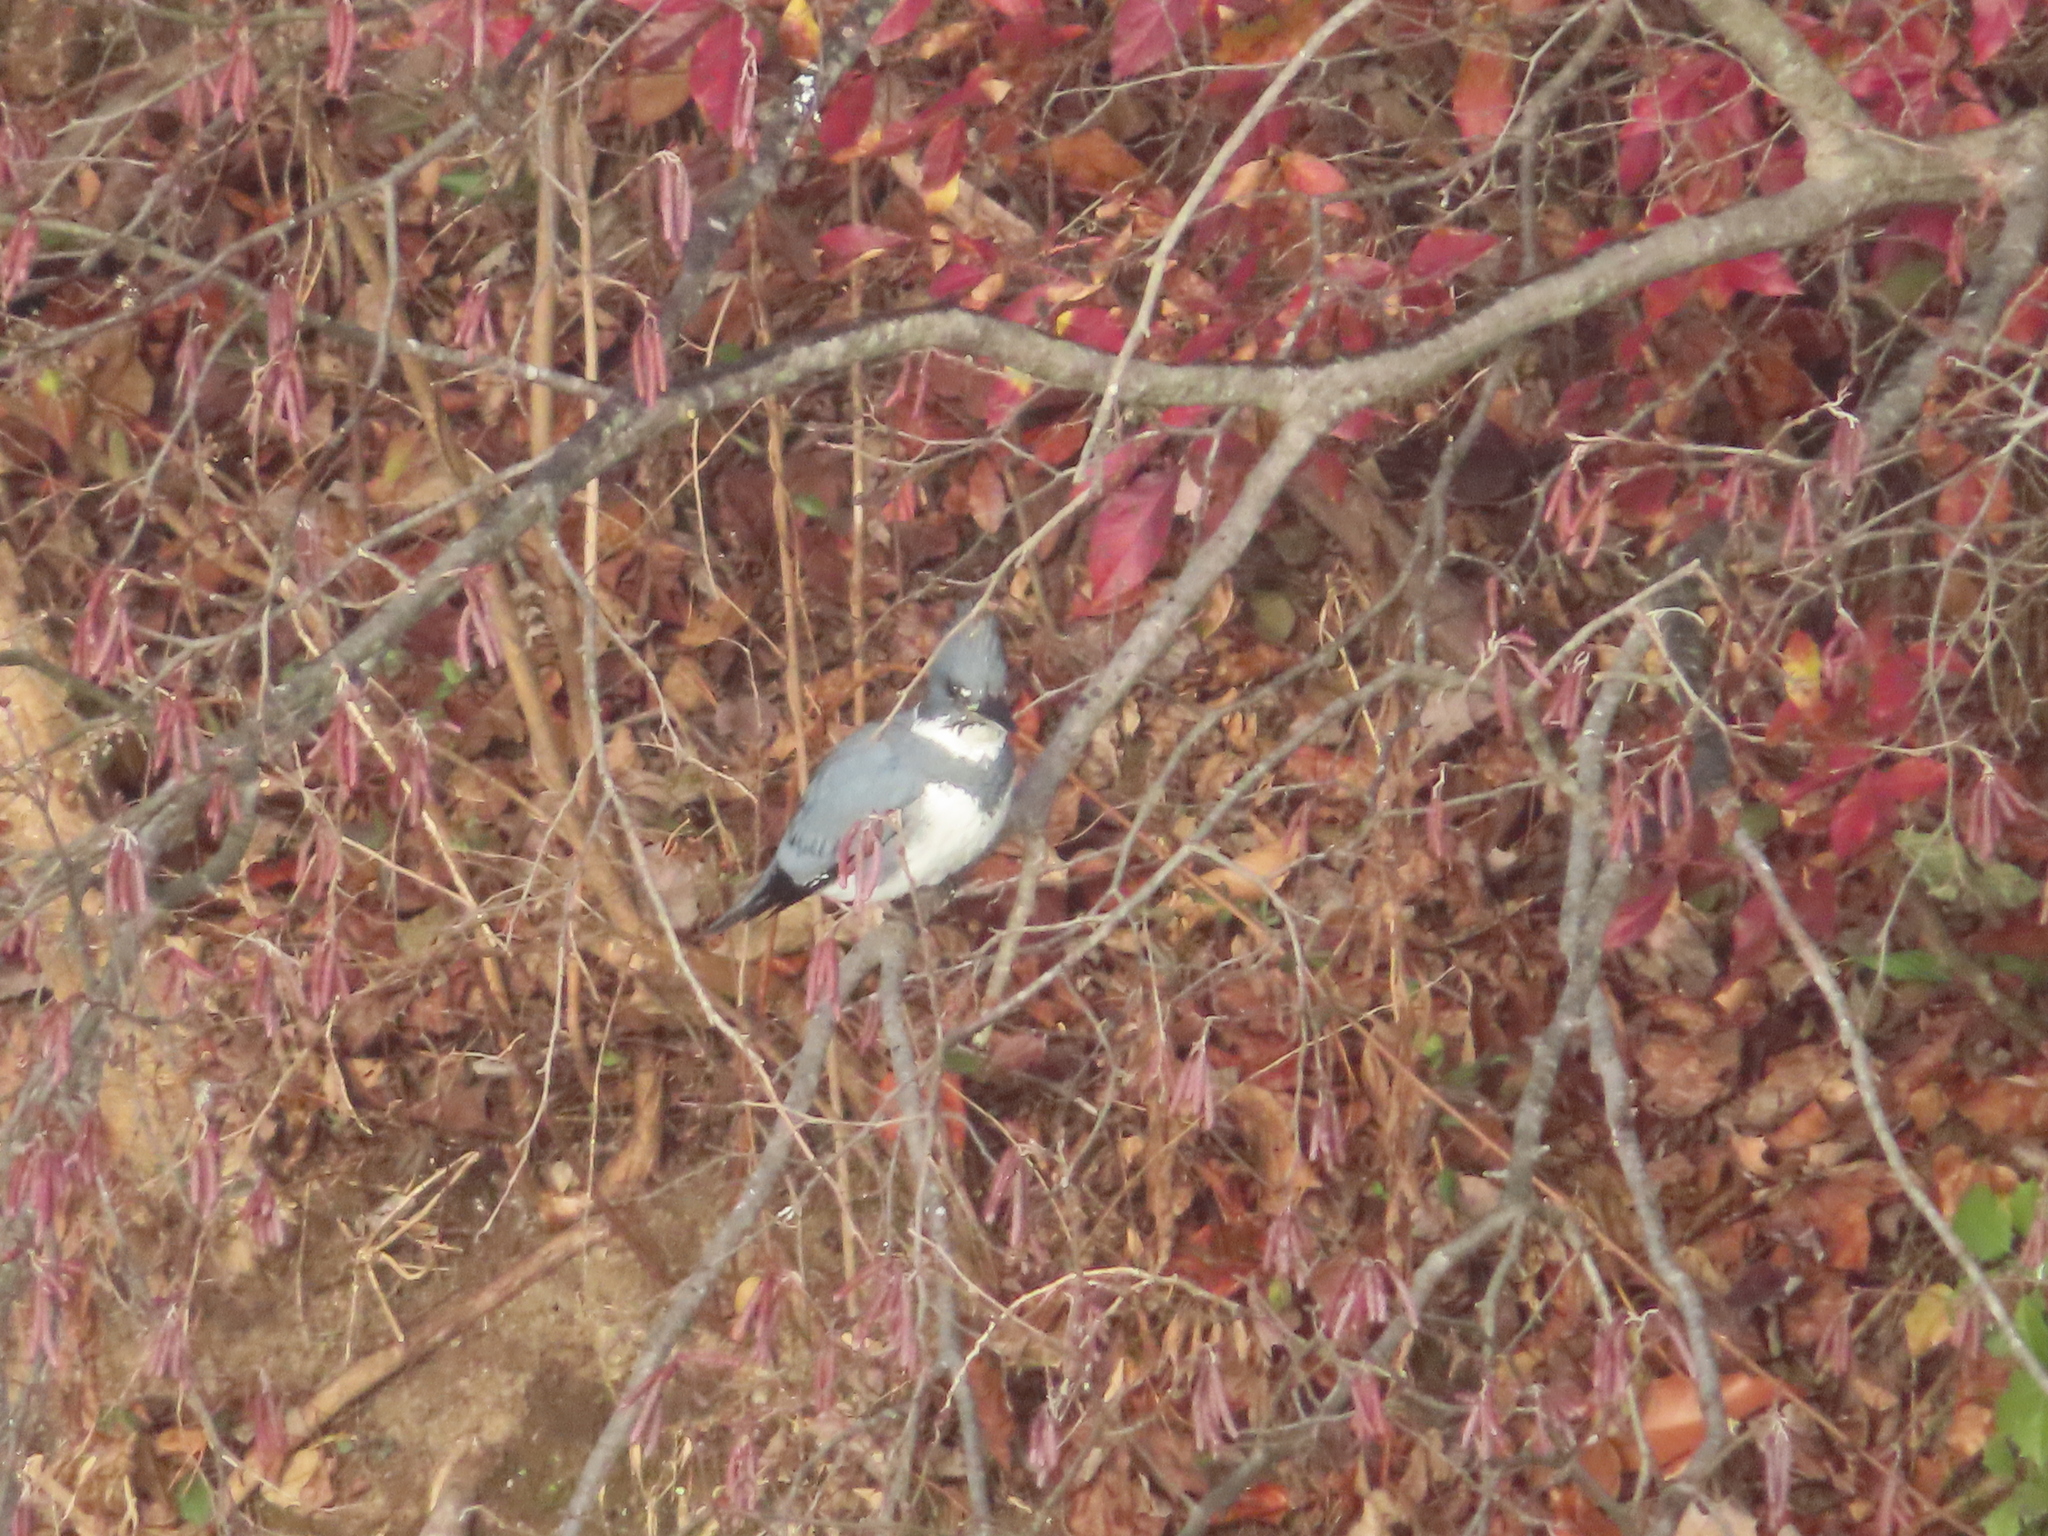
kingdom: Animalia
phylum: Chordata
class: Aves
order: Coraciiformes
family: Alcedinidae
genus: Megaceryle
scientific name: Megaceryle alcyon
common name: Belted kingfisher
